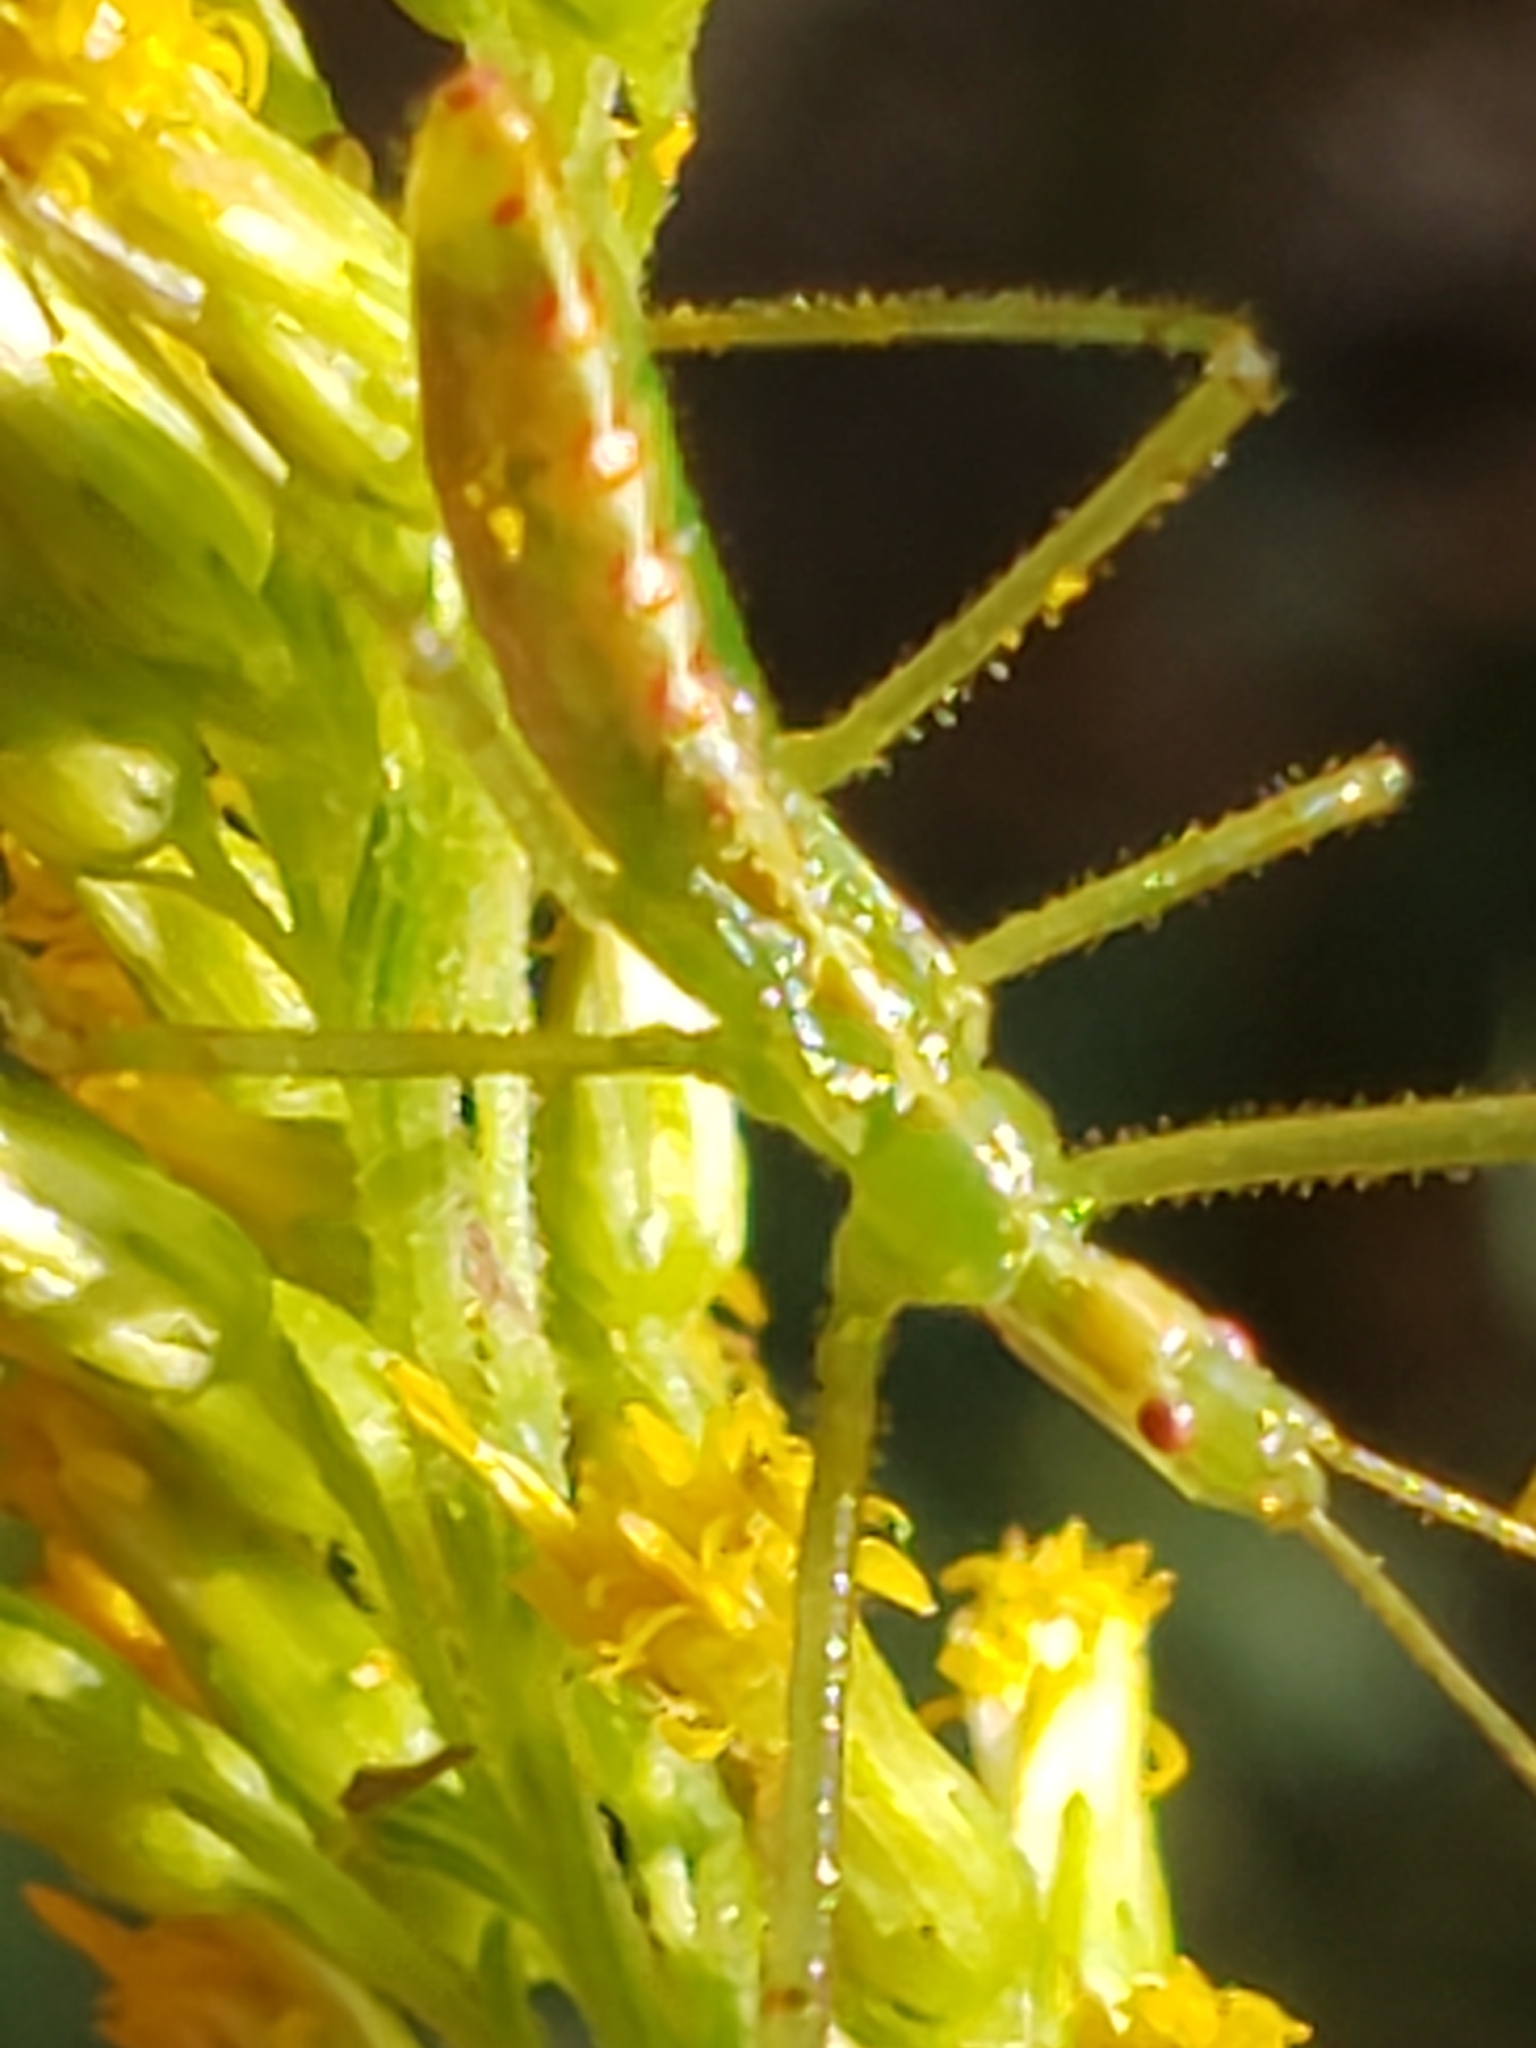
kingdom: Animalia
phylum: Arthropoda
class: Insecta
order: Hemiptera
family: Reduviidae
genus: Zelus
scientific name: Zelus luridus
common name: Pale green assassin bug
